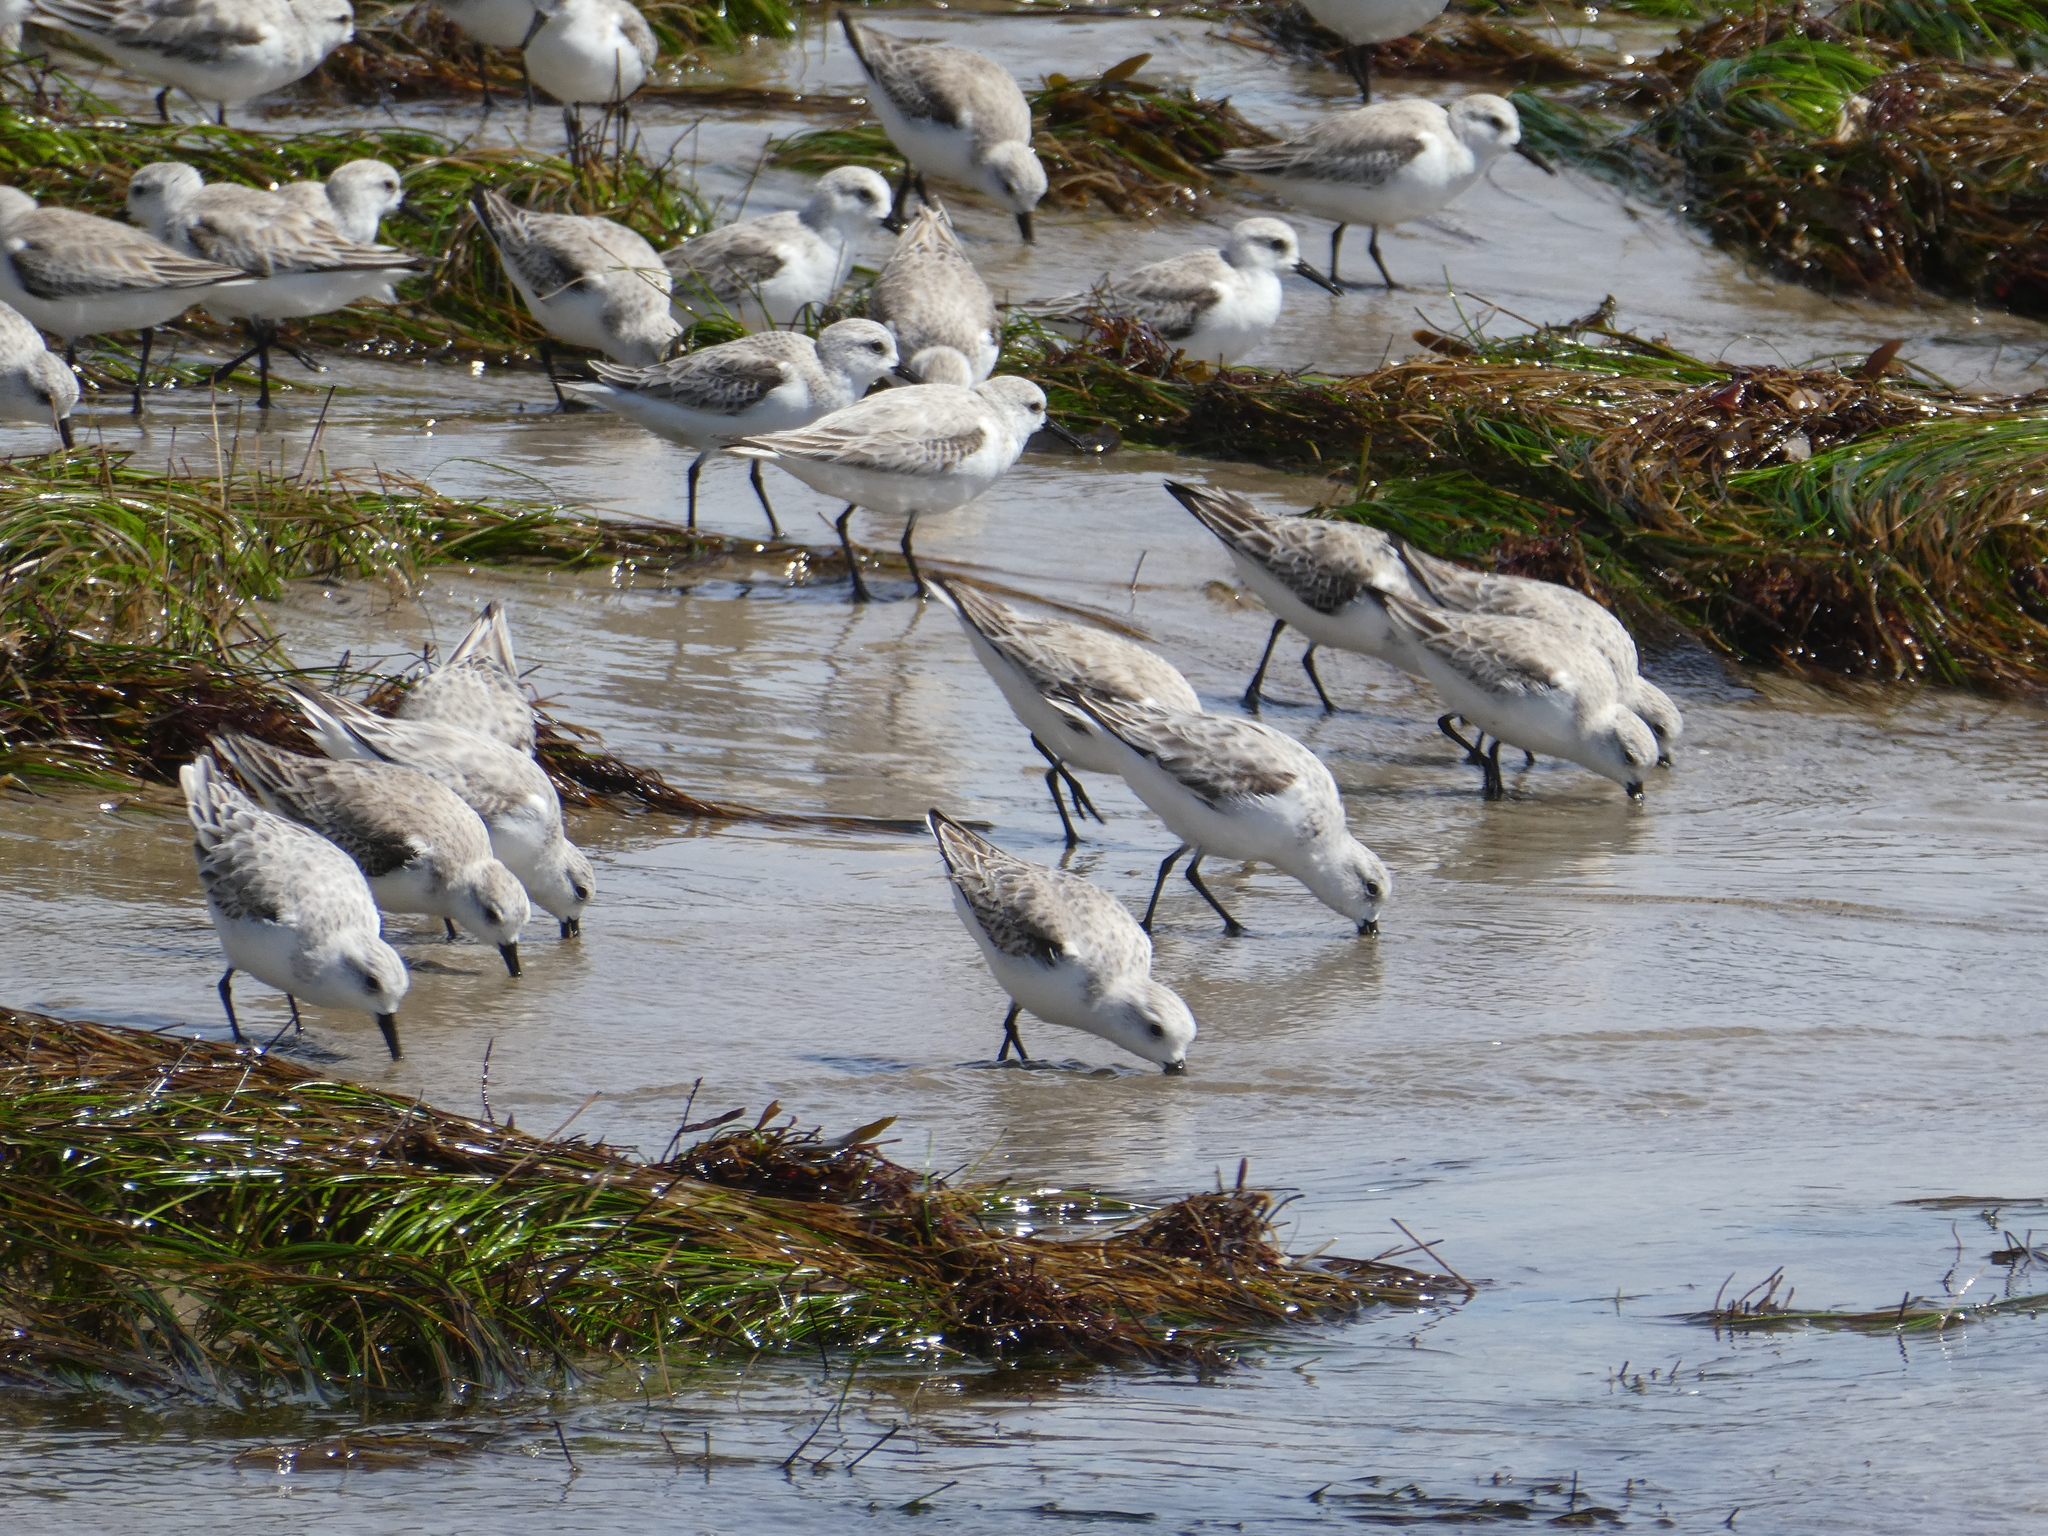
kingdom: Animalia
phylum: Chordata
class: Aves
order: Charadriiformes
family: Scolopacidae
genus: Calidris
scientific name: Calidris alba
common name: Sanderling
